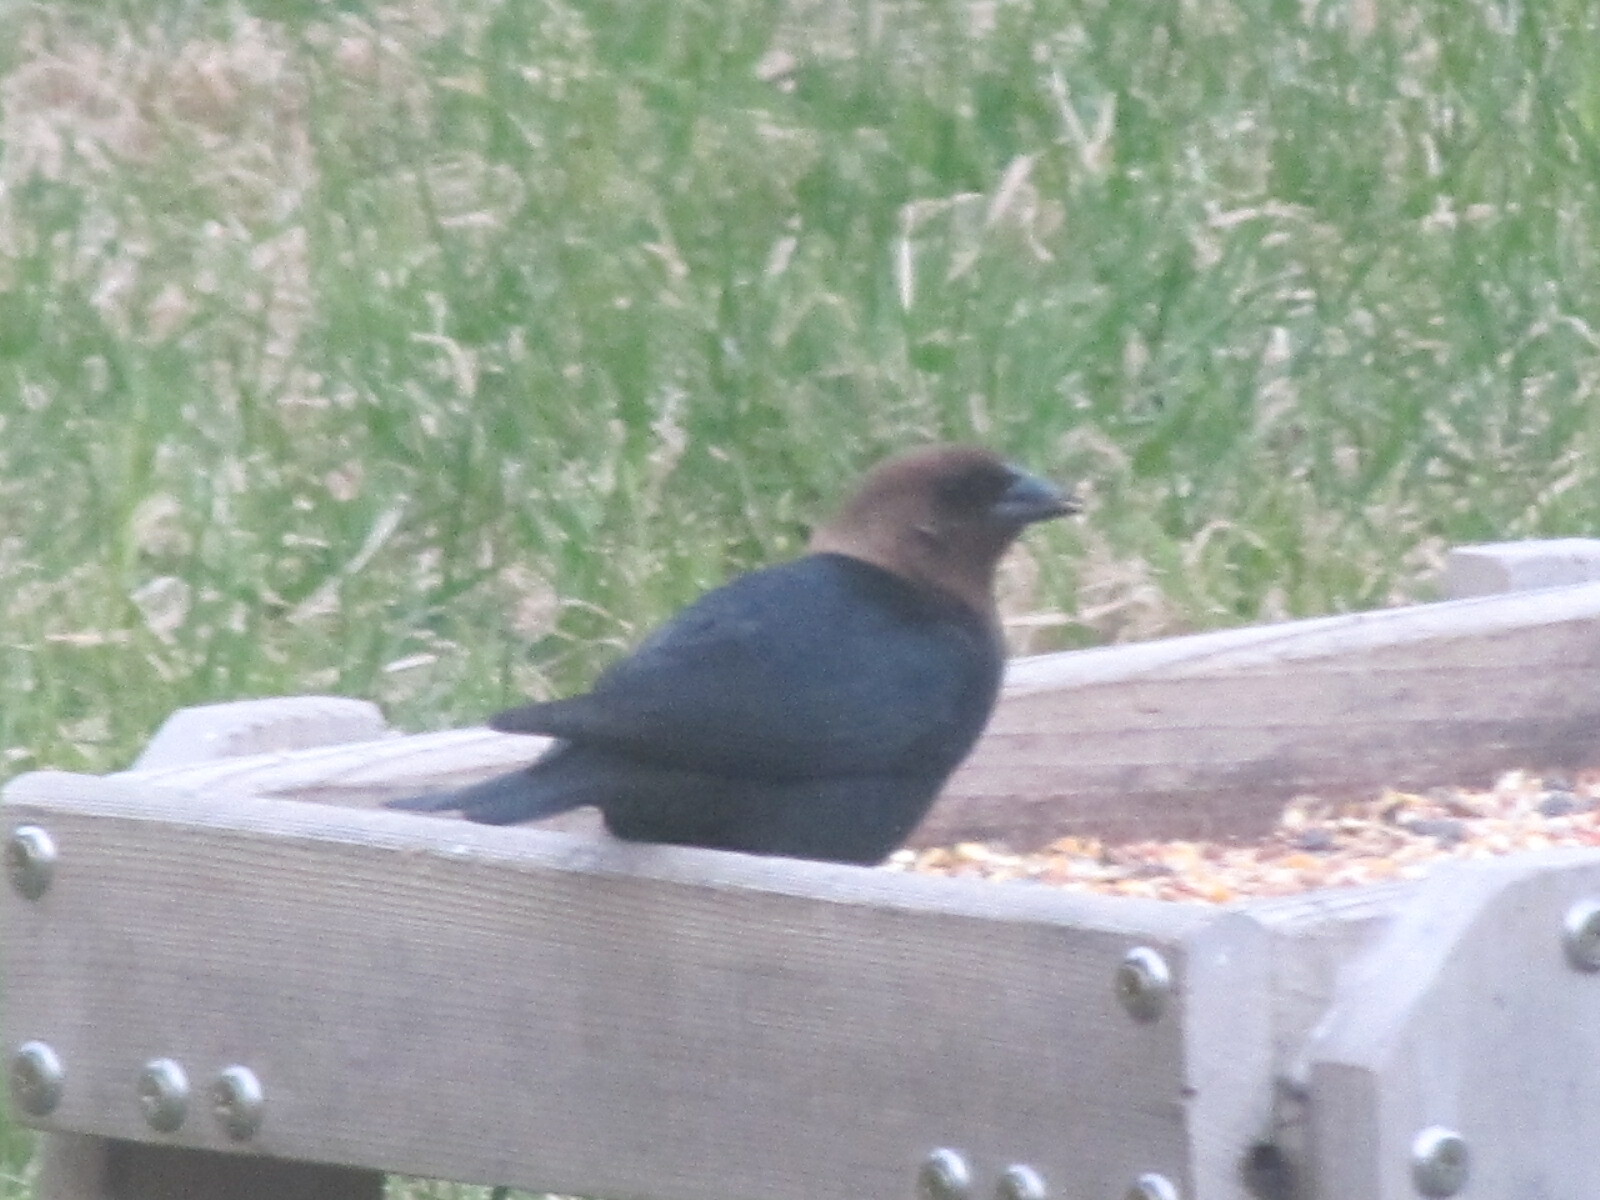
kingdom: Animalia
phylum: Chordata
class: Aves
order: Passeriformes
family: Icteridae
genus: Molothrus
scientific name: Molothrus ater
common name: Brown-headed cowbird
